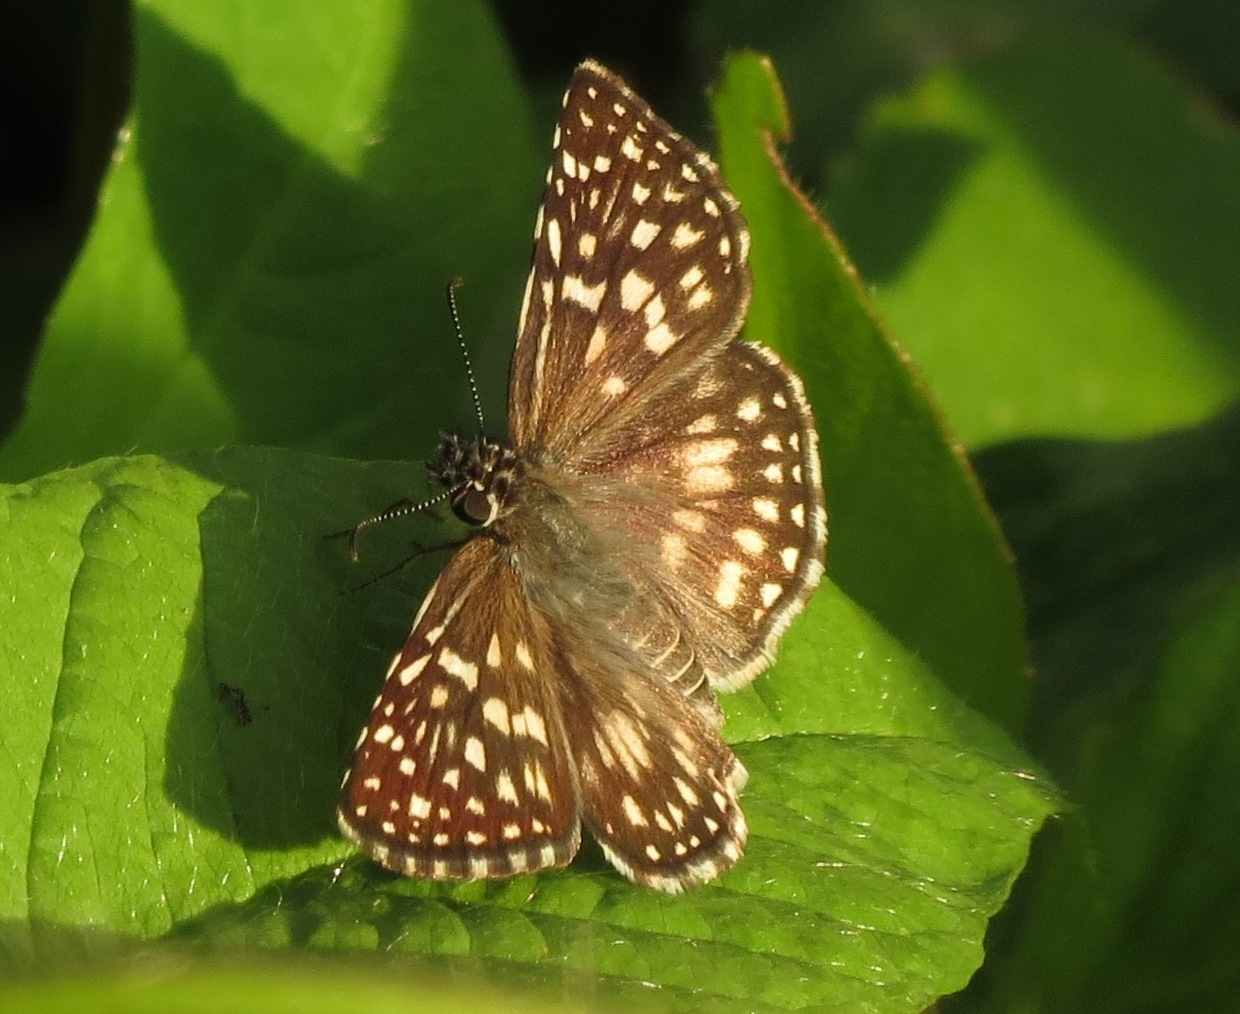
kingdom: Animalia
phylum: Arthropoda
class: Insecta
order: Lepidoptera
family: Hesperiidae
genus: Pyrgus
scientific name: Pyrgus oileus
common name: Tropical checkered-skipper
